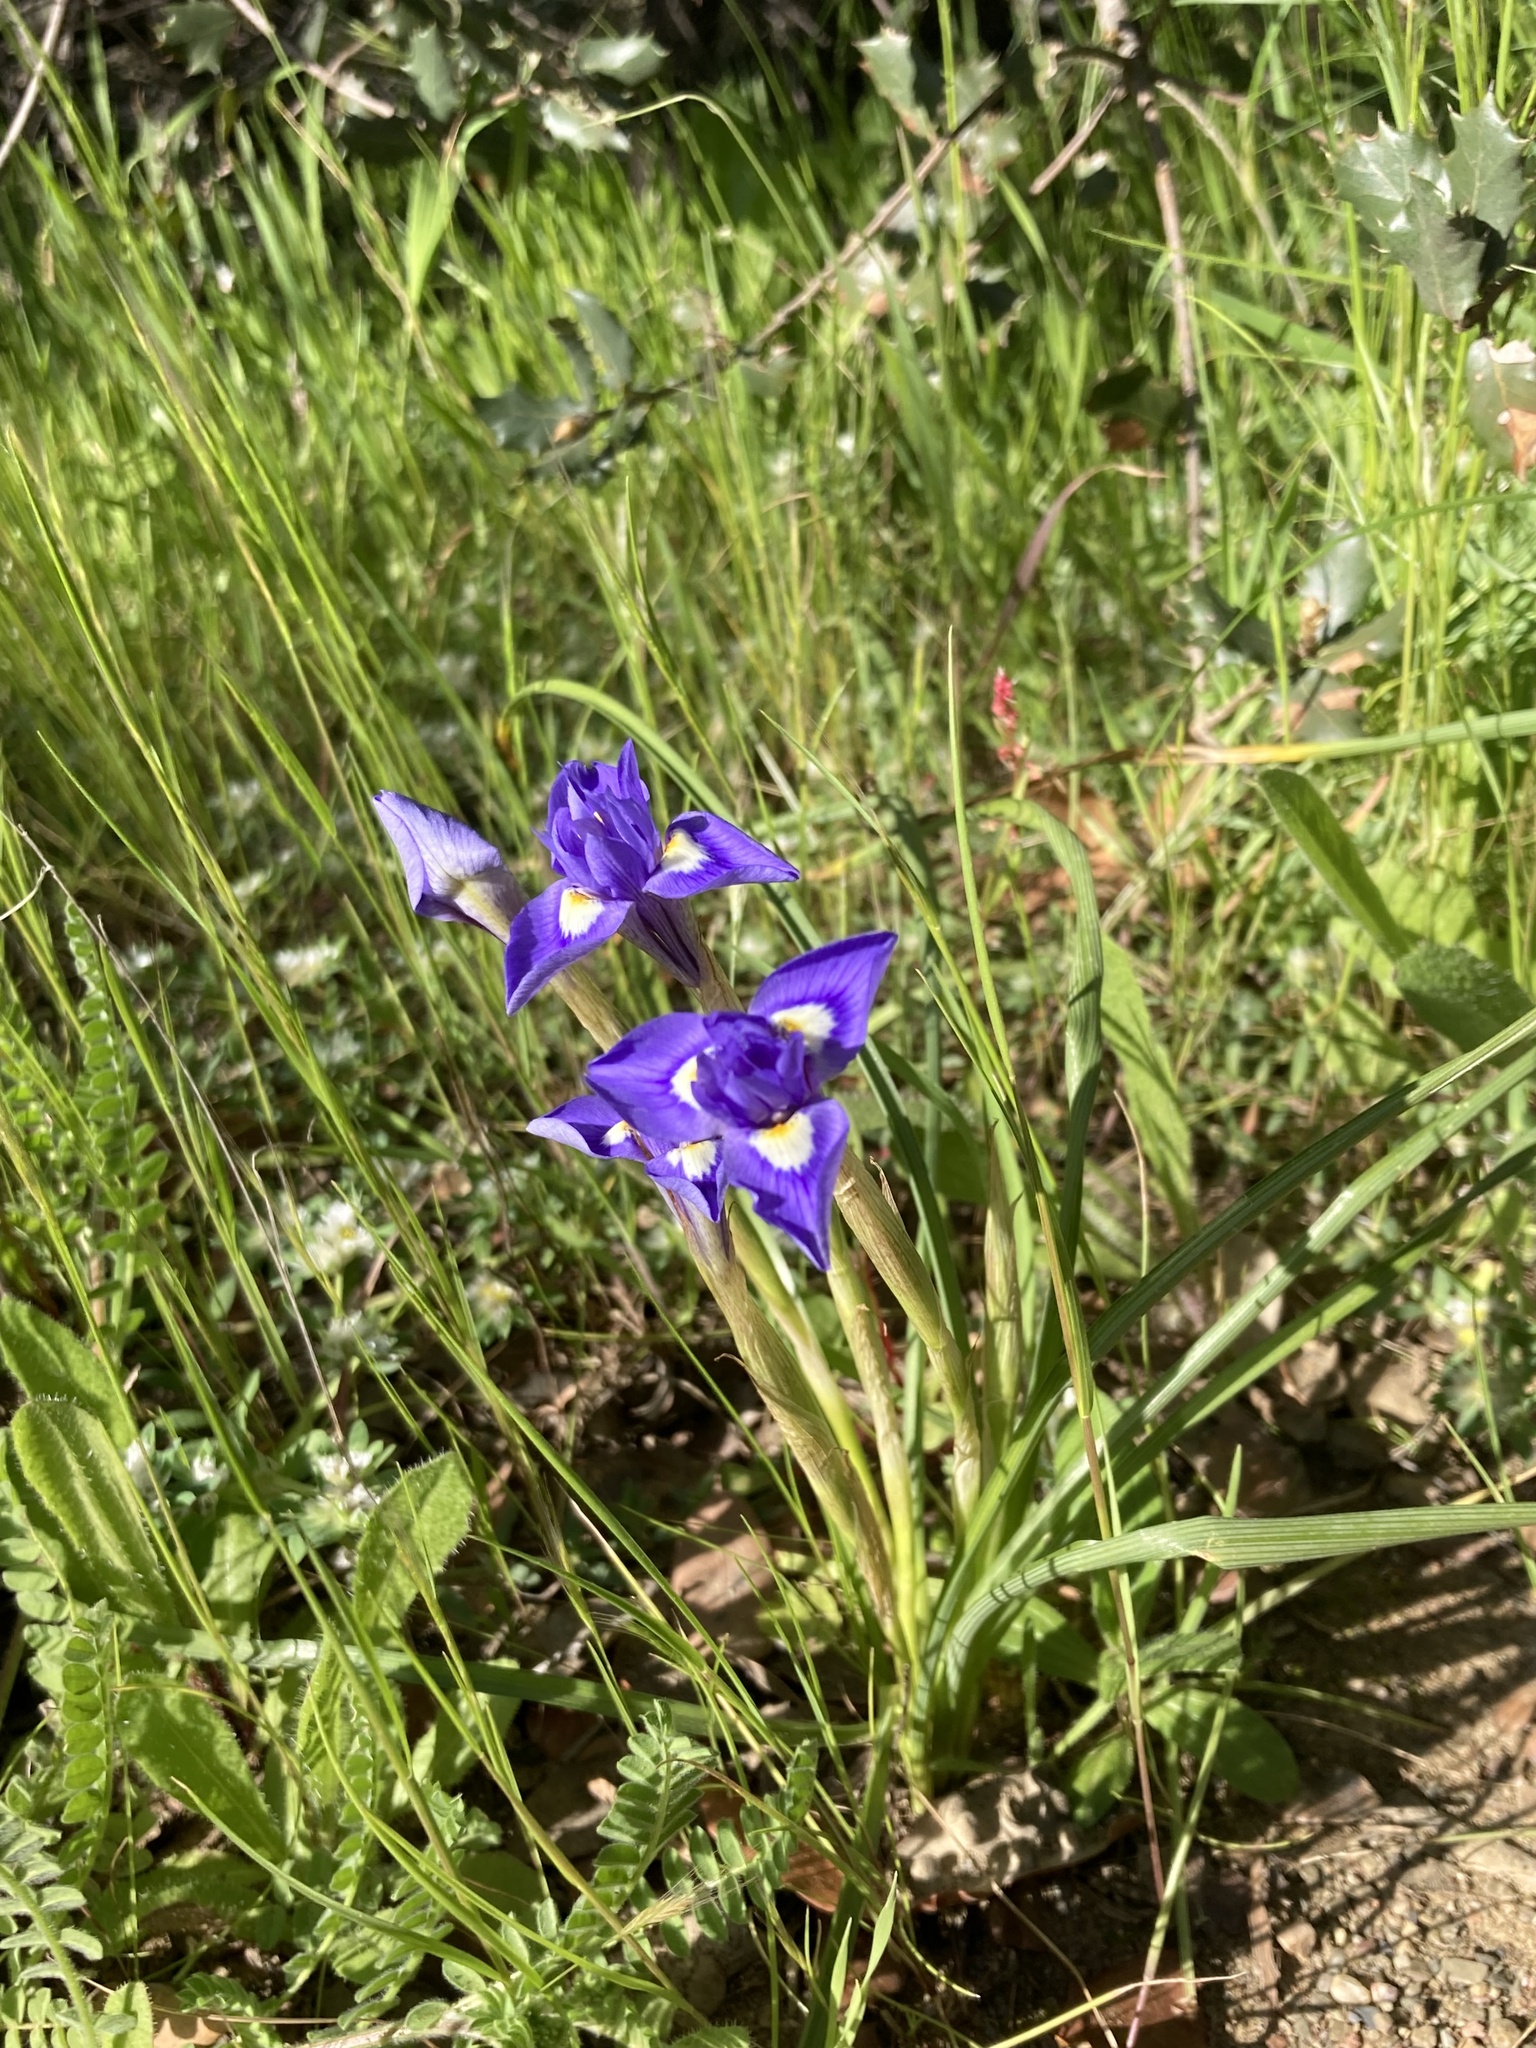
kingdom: Plantae
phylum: Tracheophyta
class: Liliopsida
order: Asparagales
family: Iridaceae
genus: Moraea
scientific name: Moraea sisyrinchium
